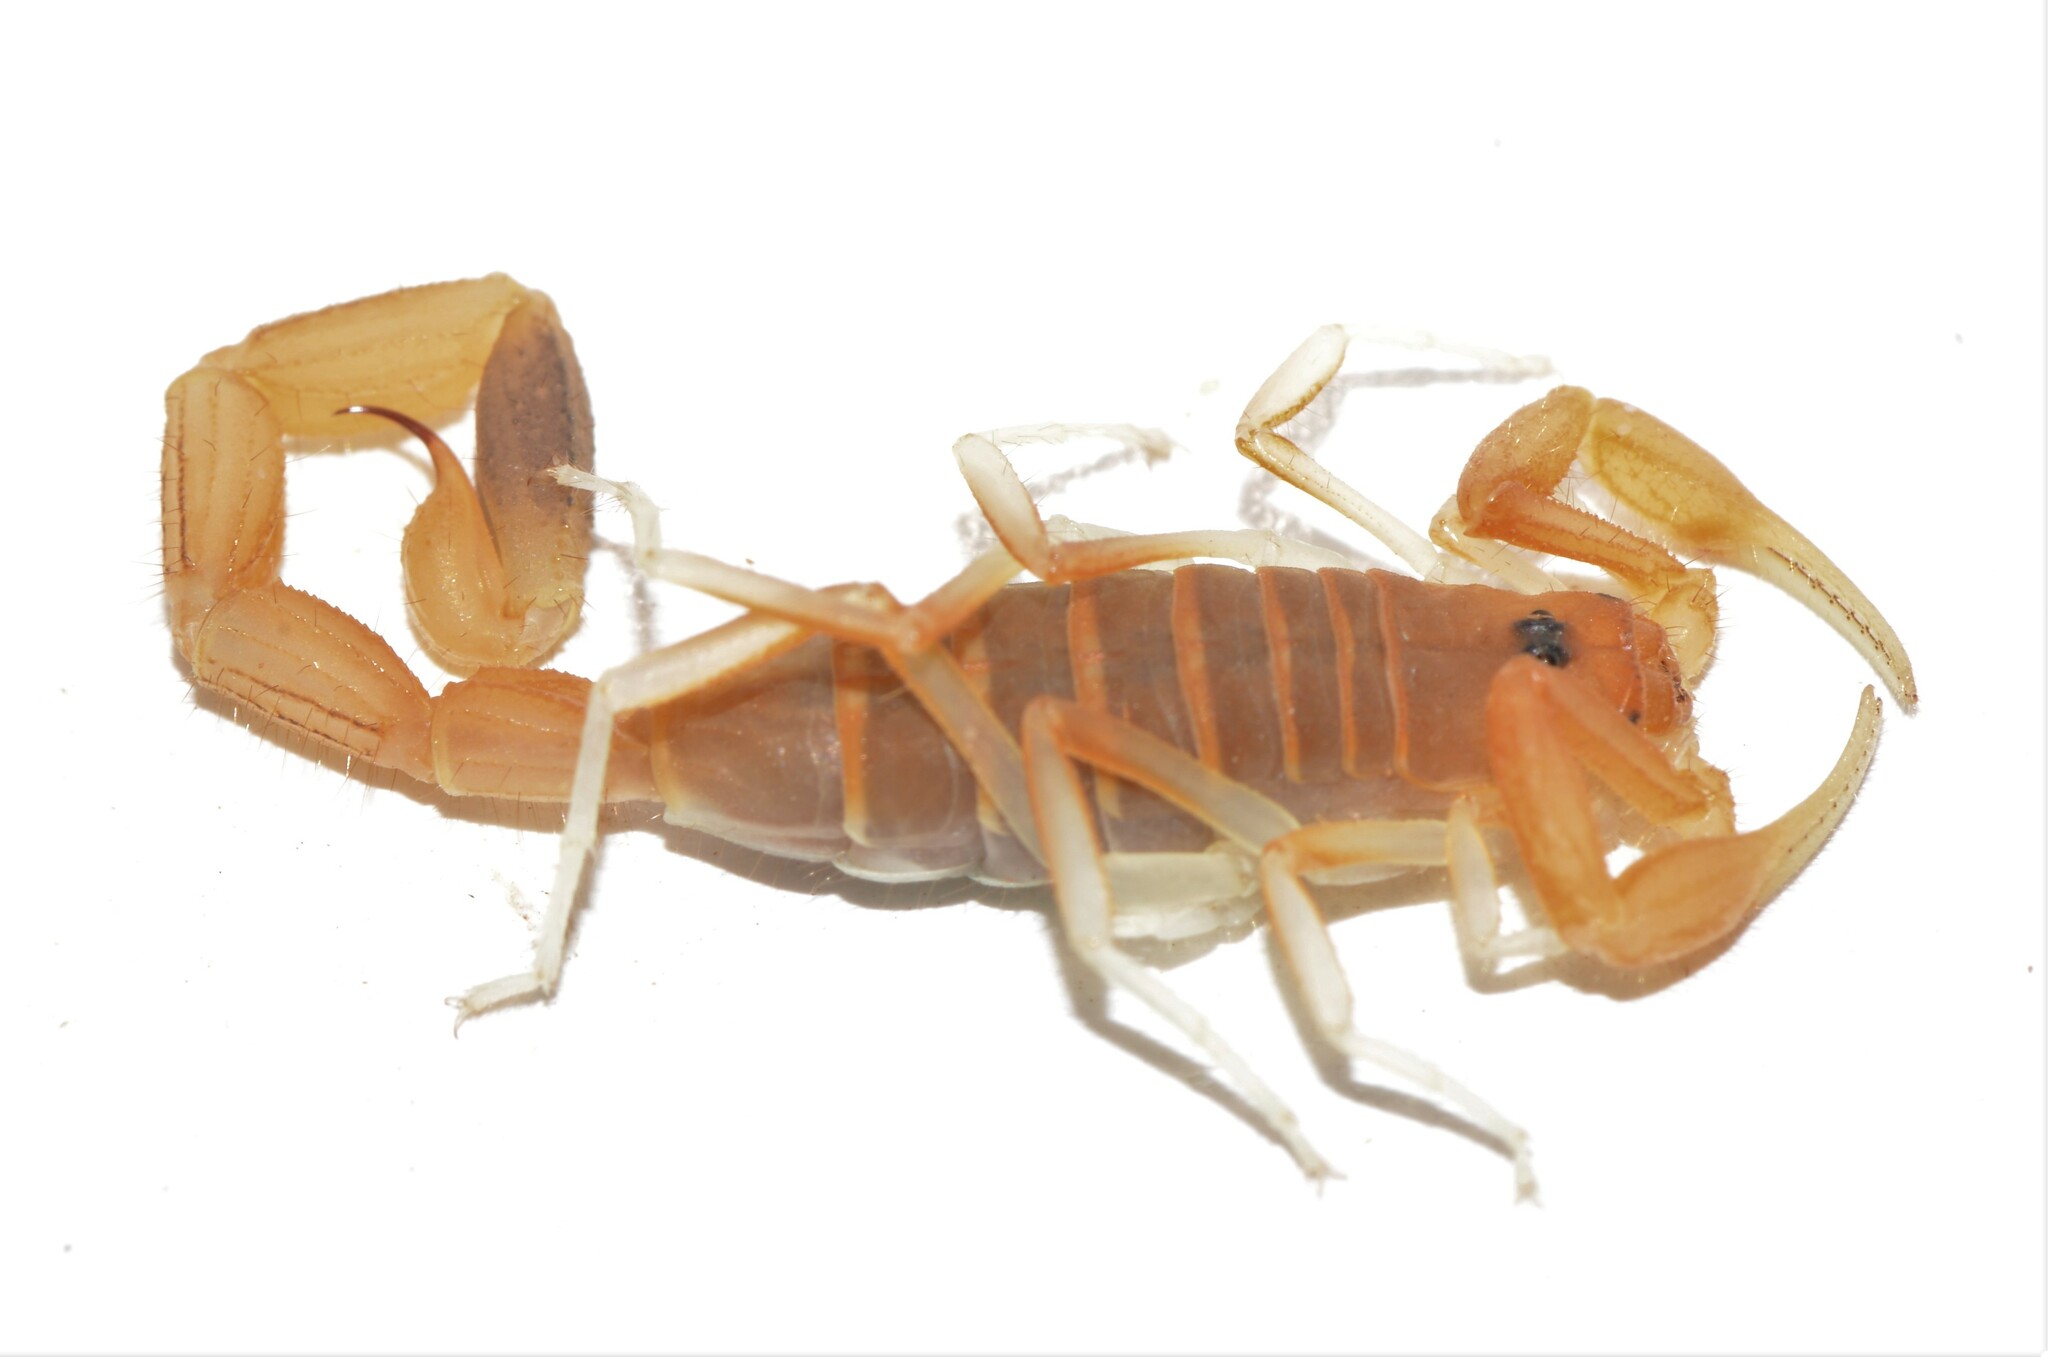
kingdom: Animalia
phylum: Arthropoda
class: Arachnida
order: Scorpiones
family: Buthidae
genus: Uroplectes
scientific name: Uroplectes gracilior
